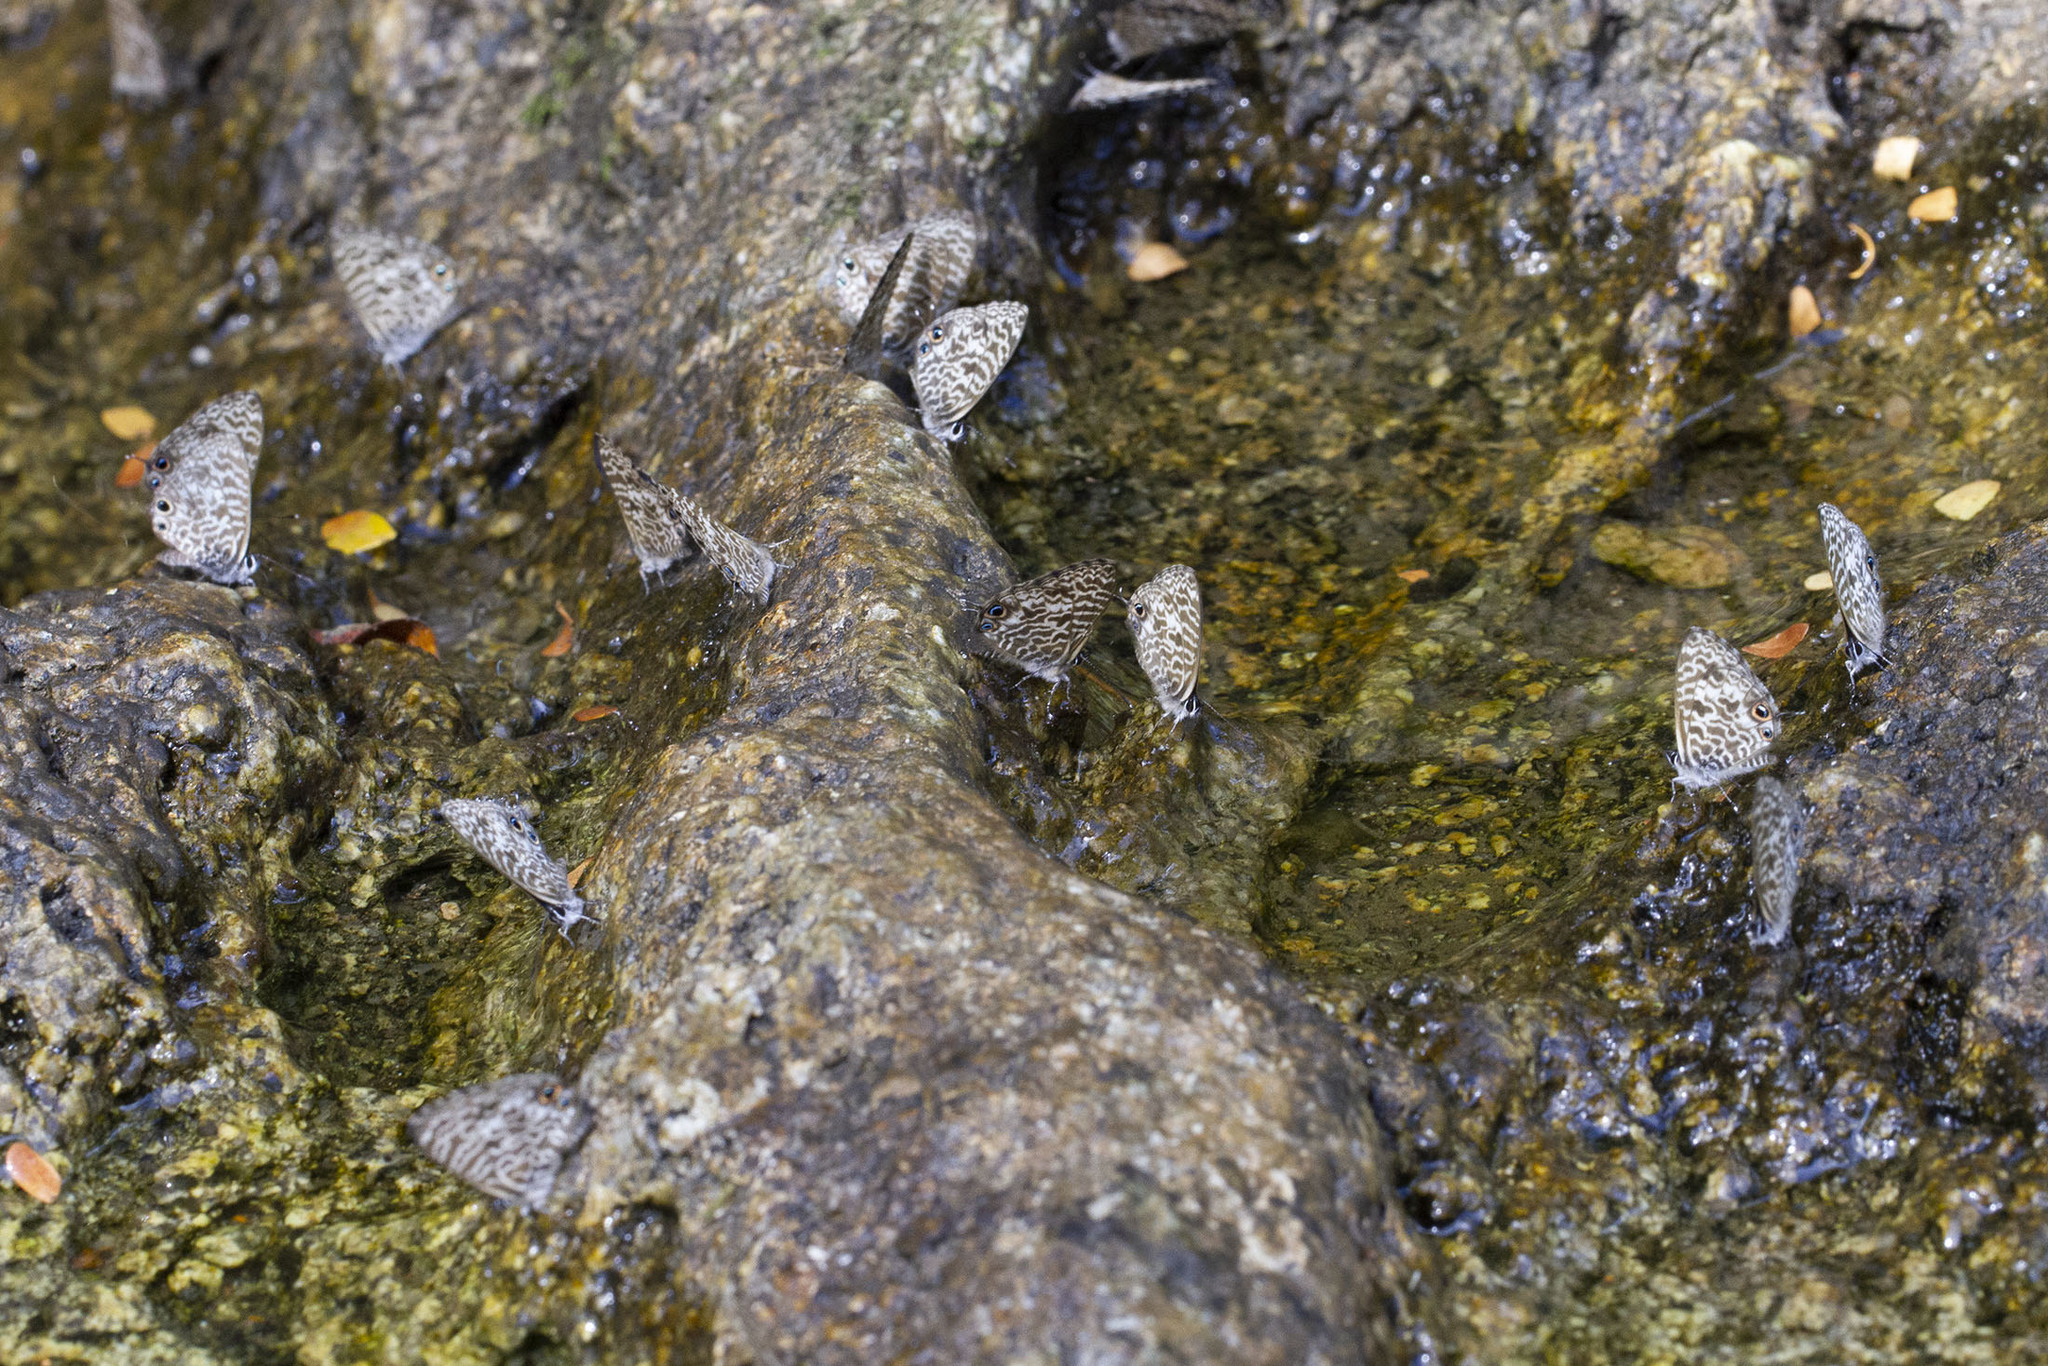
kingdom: Animalia
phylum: Arthropoda
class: Insecta
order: Lepidoptera
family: Lycaenidae
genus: Leptotes
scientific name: Leptotes rabenafer
